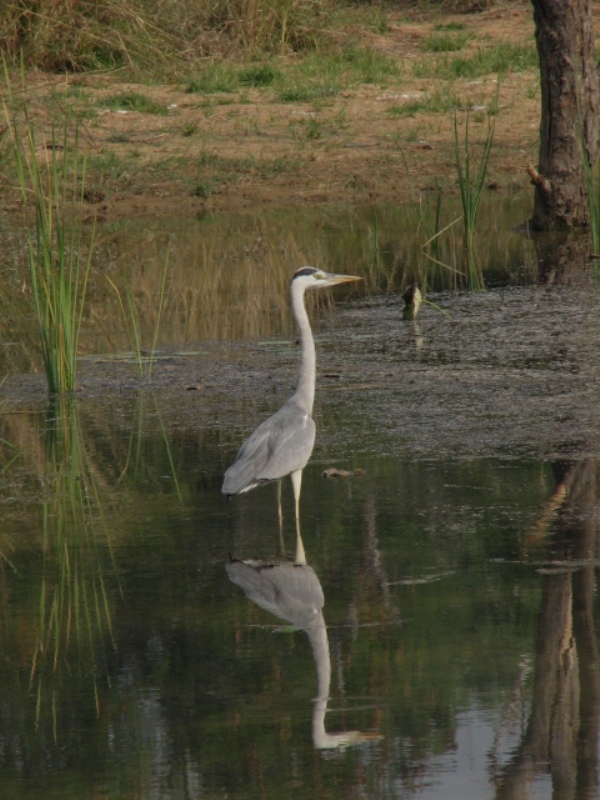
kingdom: Animalia
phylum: Chordata
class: Aves
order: Pelecaniformes
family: Ardeidae
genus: Ardea
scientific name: Ardea cinerea
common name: Grey heron
